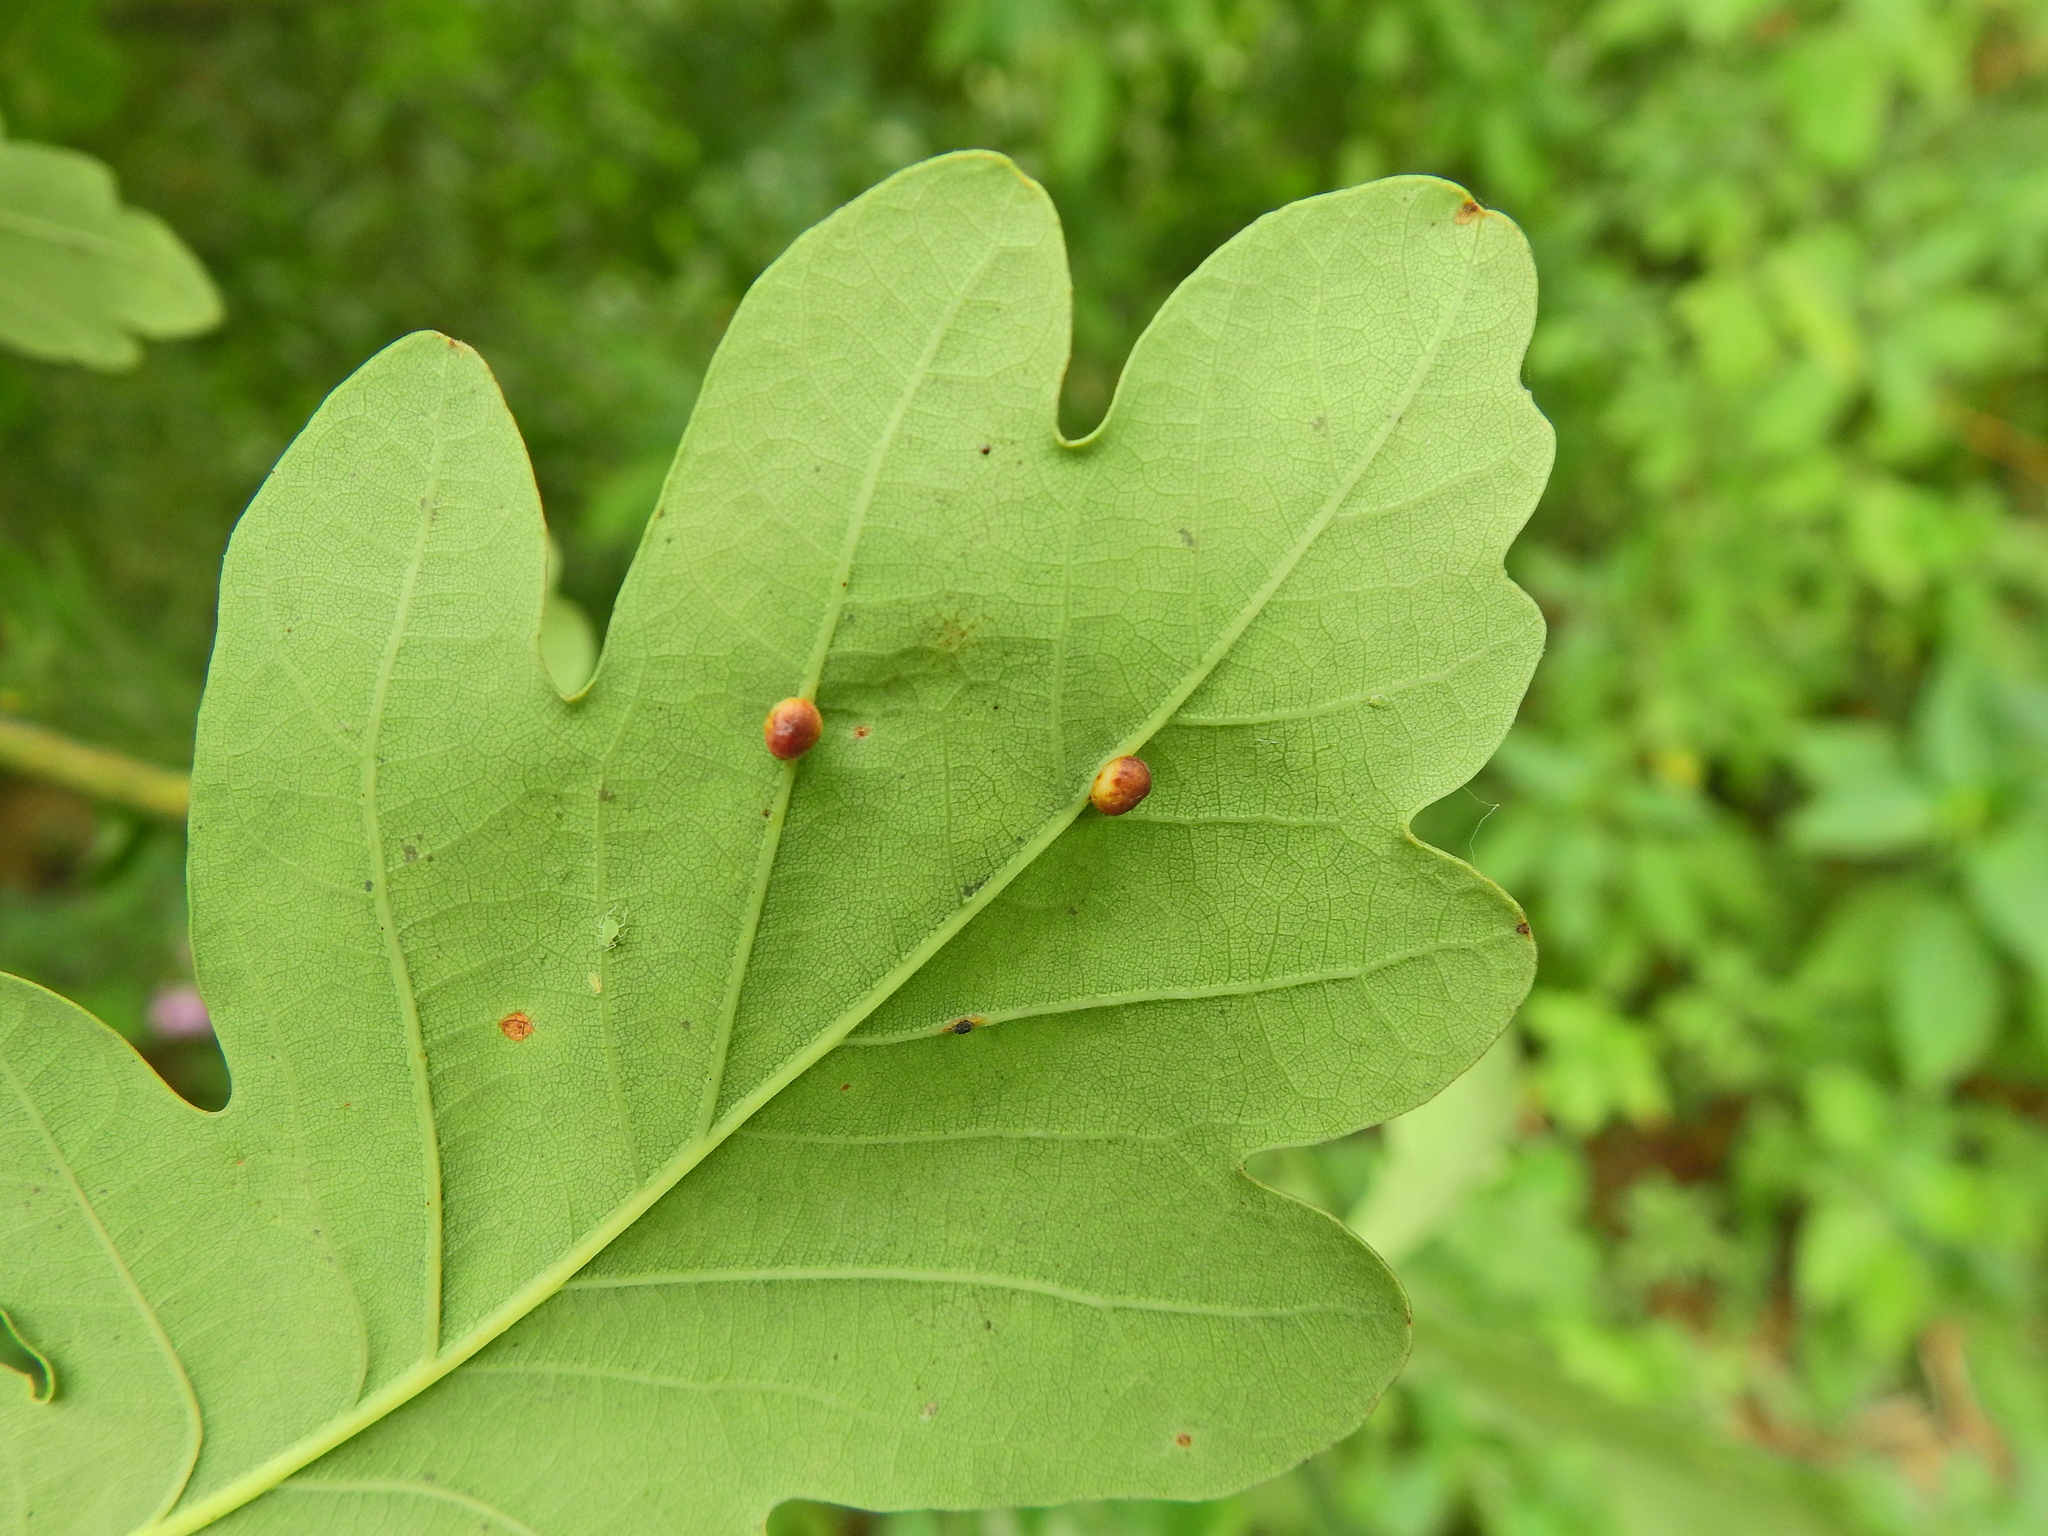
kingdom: Animalia
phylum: Arthropoda
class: Insecta
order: Hymenoptera
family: Cynipidae
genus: Neuroterus
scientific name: Neuroterus anthracinus
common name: Oyster gall
